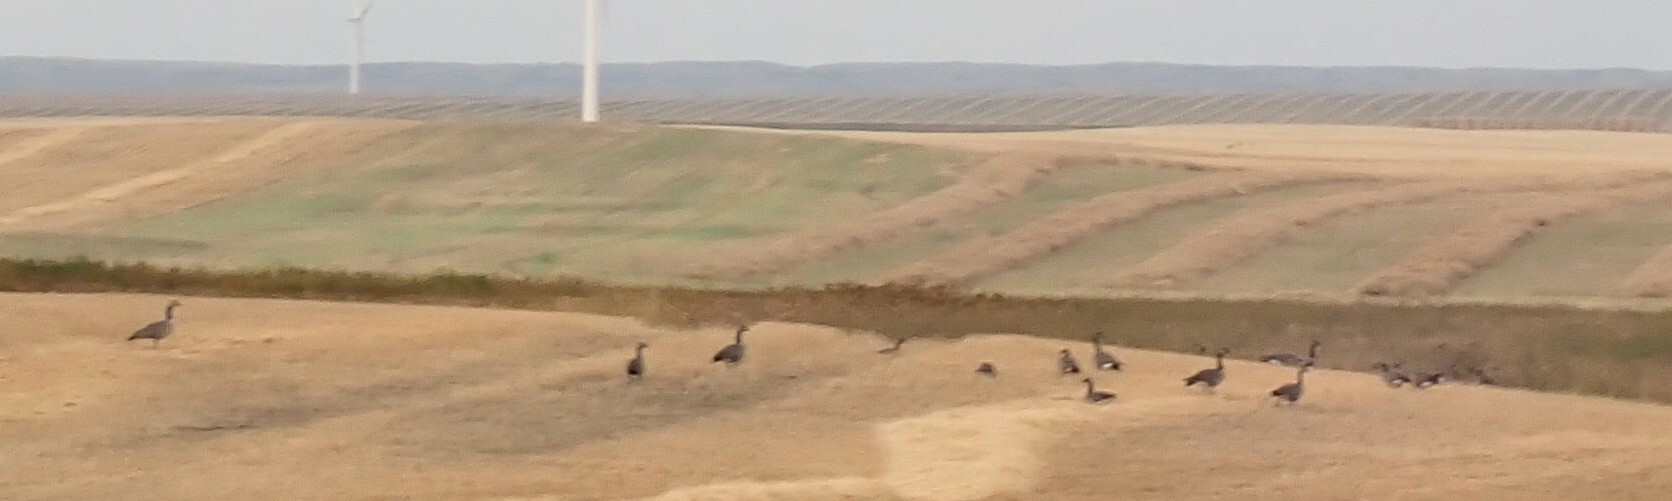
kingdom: Animalia
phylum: Chordata
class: Aves
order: Anseriformes
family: Anatidae
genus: Branta
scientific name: Branta canadensis
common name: Canada goose
